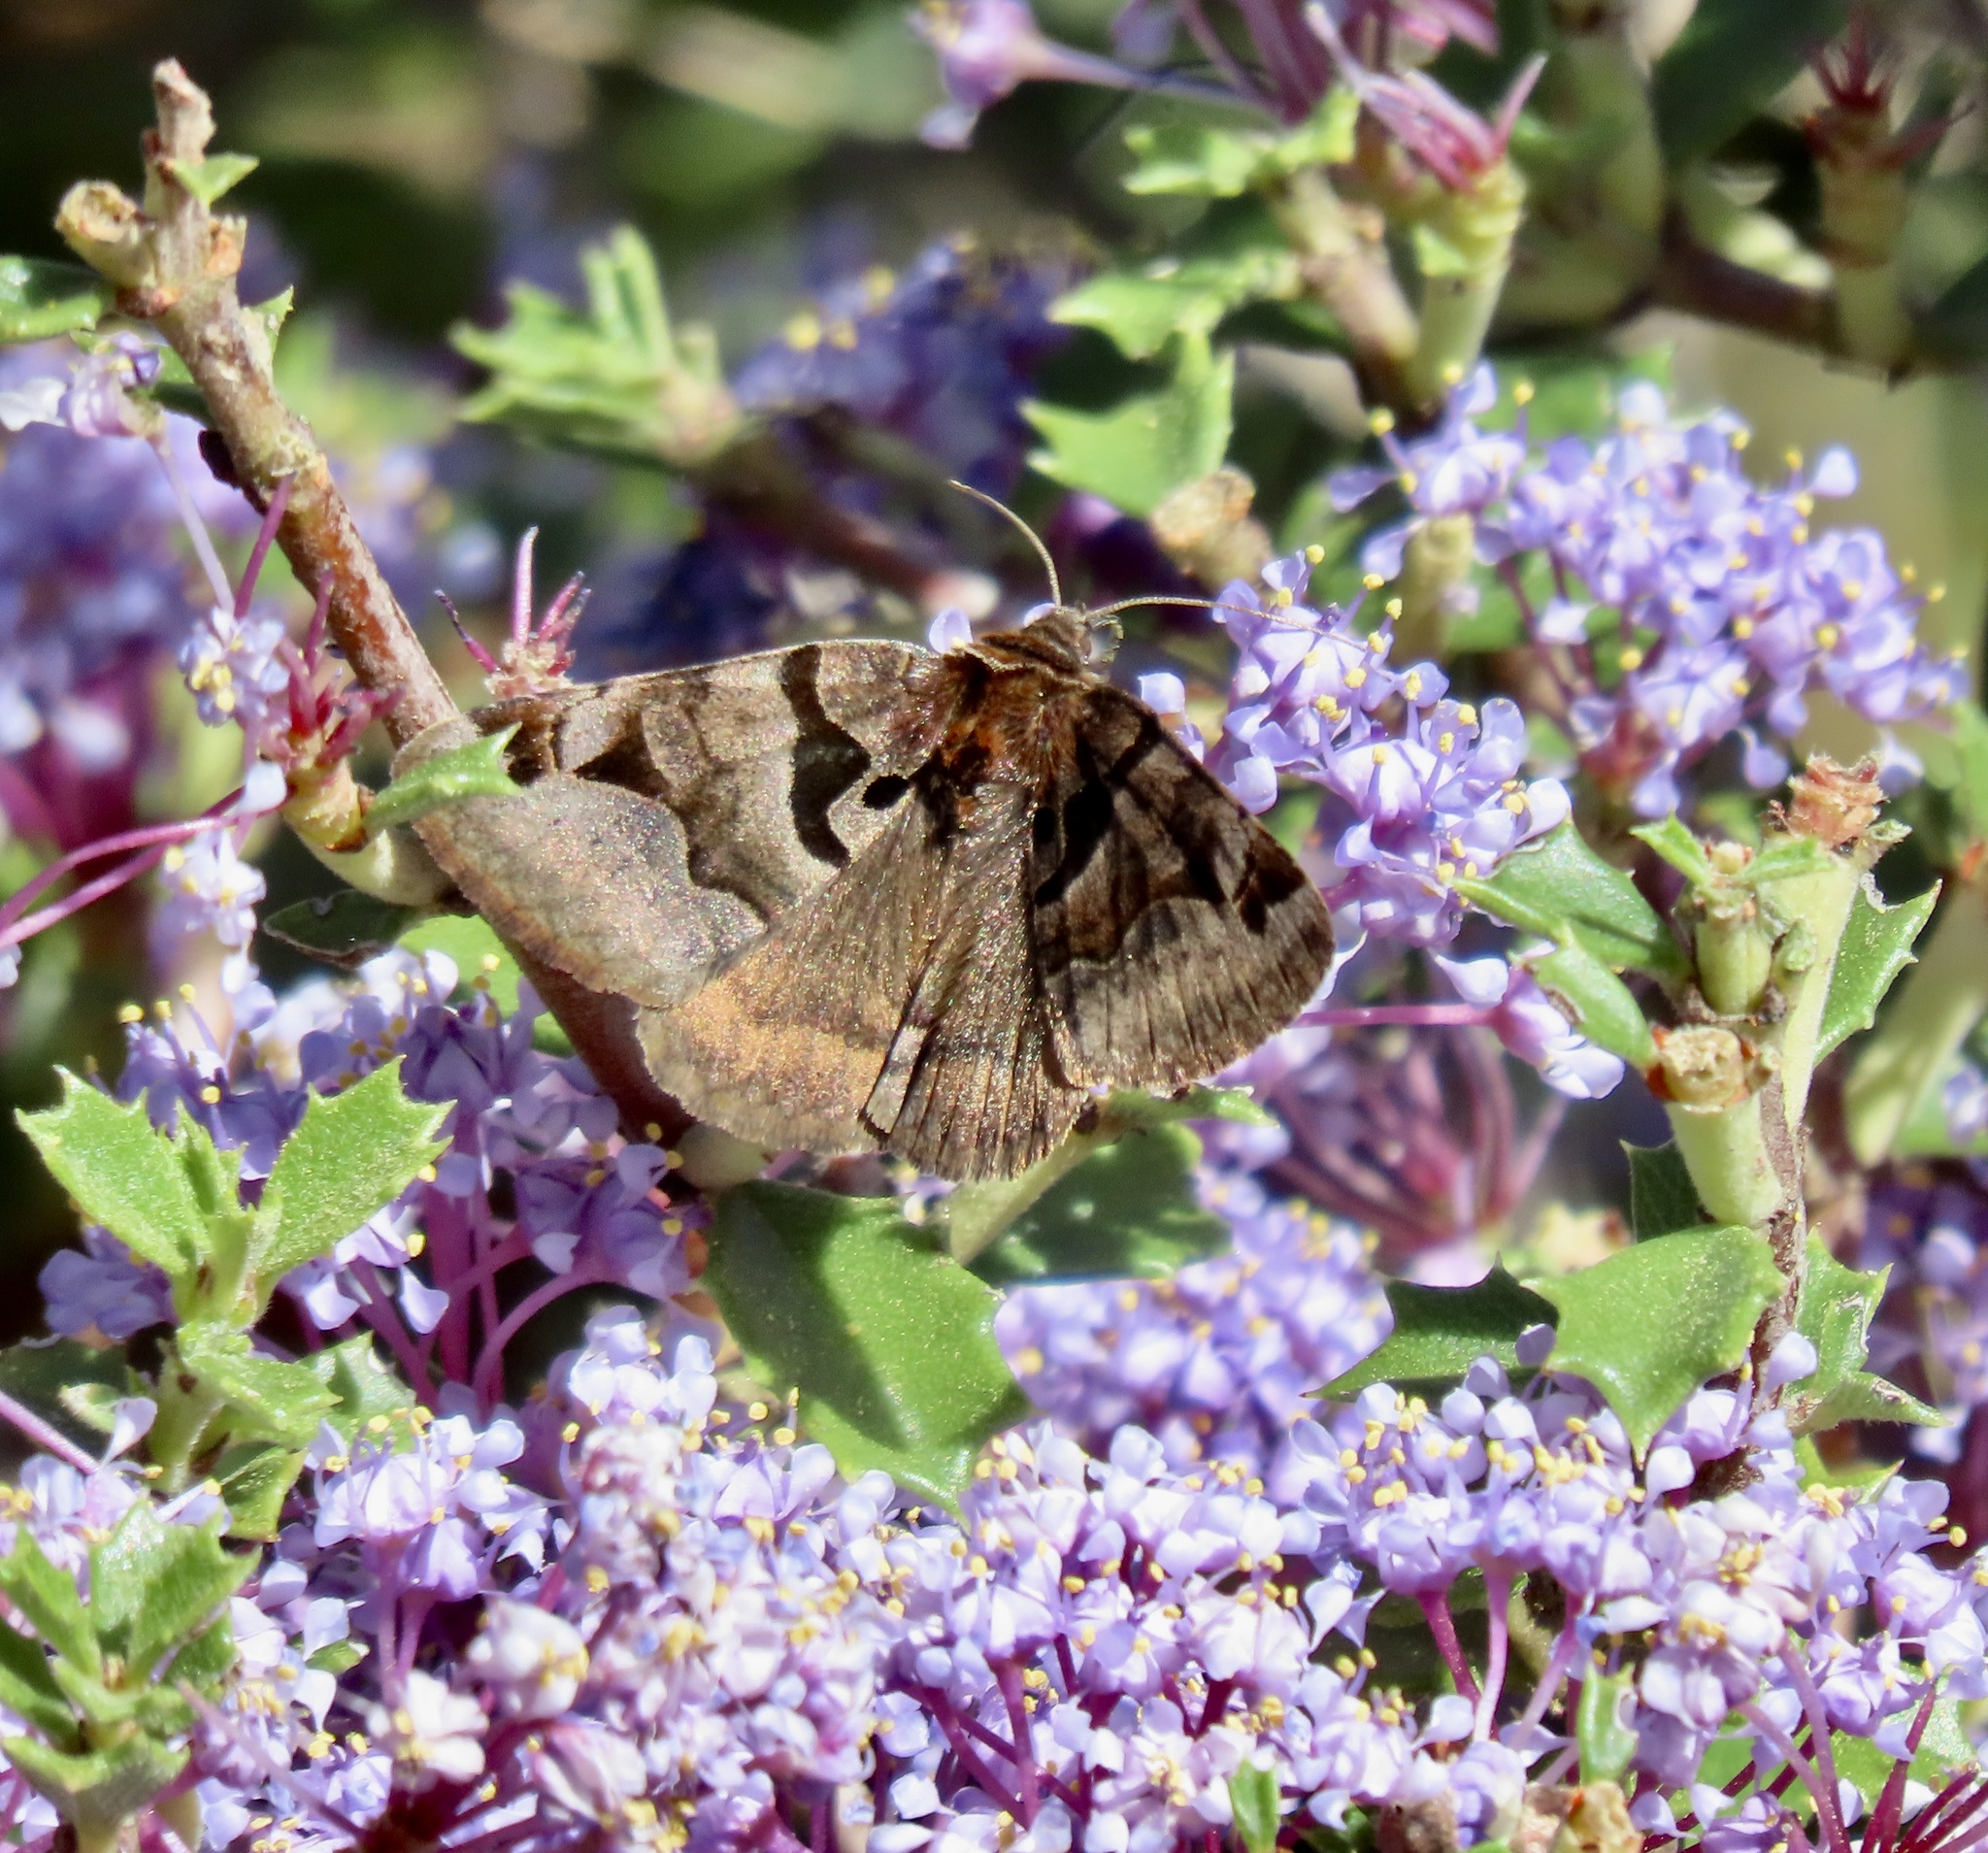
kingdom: Animalia
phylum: Arthropoda
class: Insecta
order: Lepidoptera
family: Erebidae
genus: Euclidia
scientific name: Euclidia ardita
